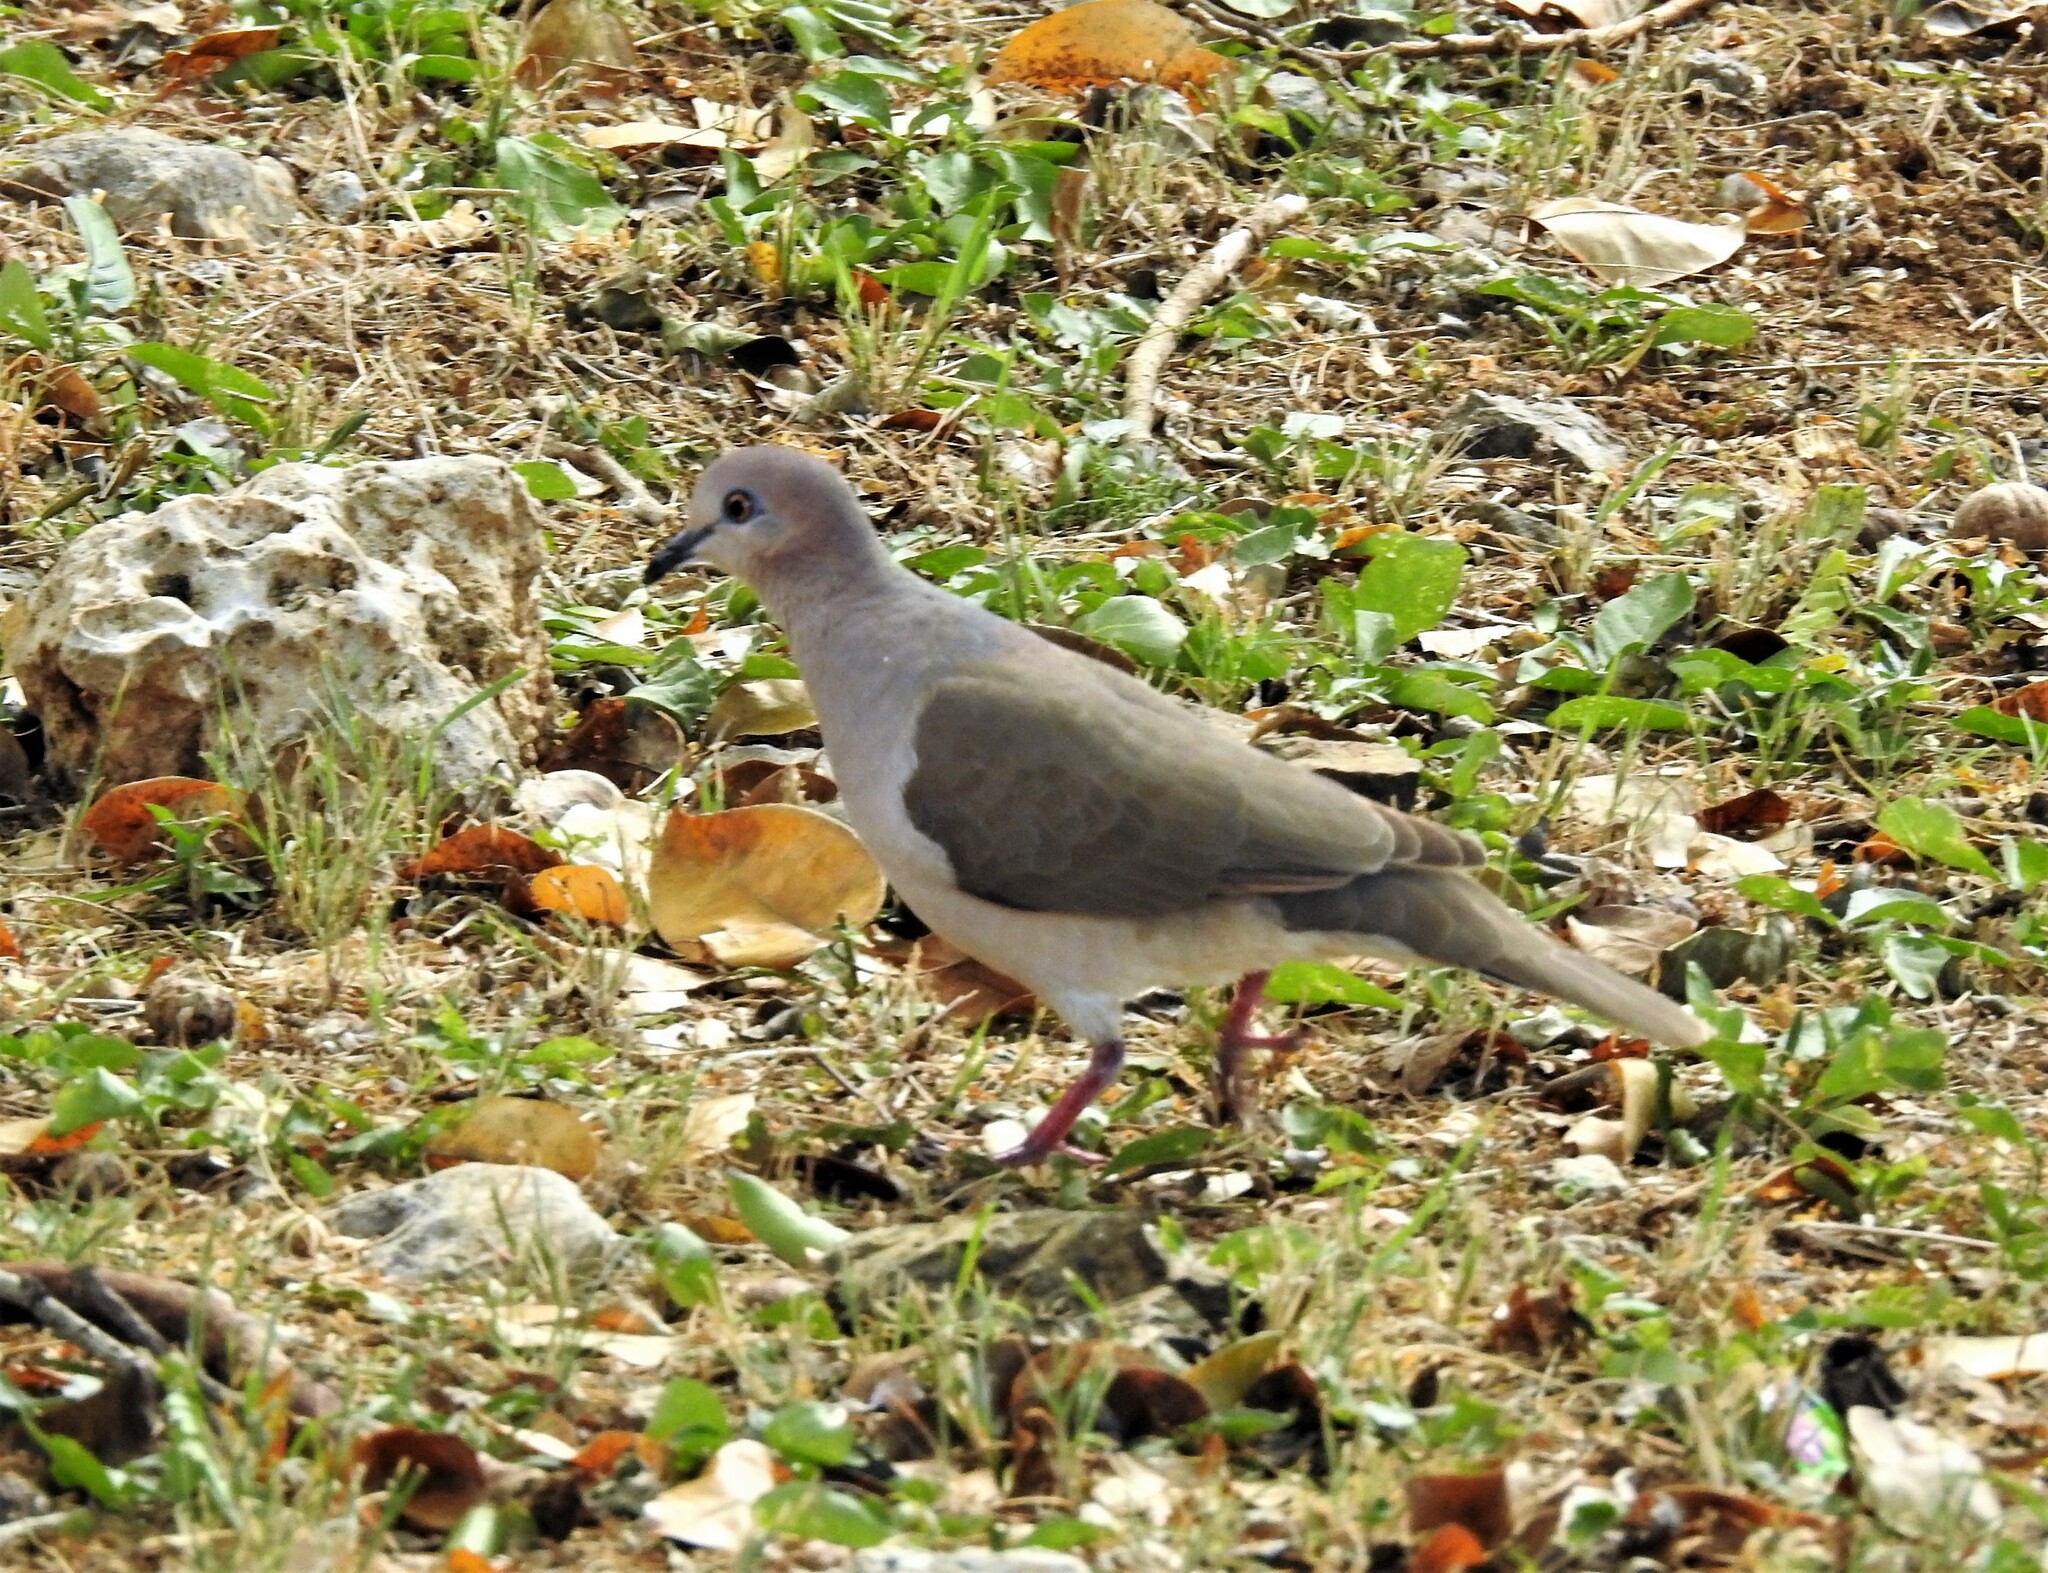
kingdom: Animalia
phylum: Chordata
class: Aves
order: Columbiformes
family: Columbidae
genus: Leptotila
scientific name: Leptotila verreauxi
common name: White-tipped dove
